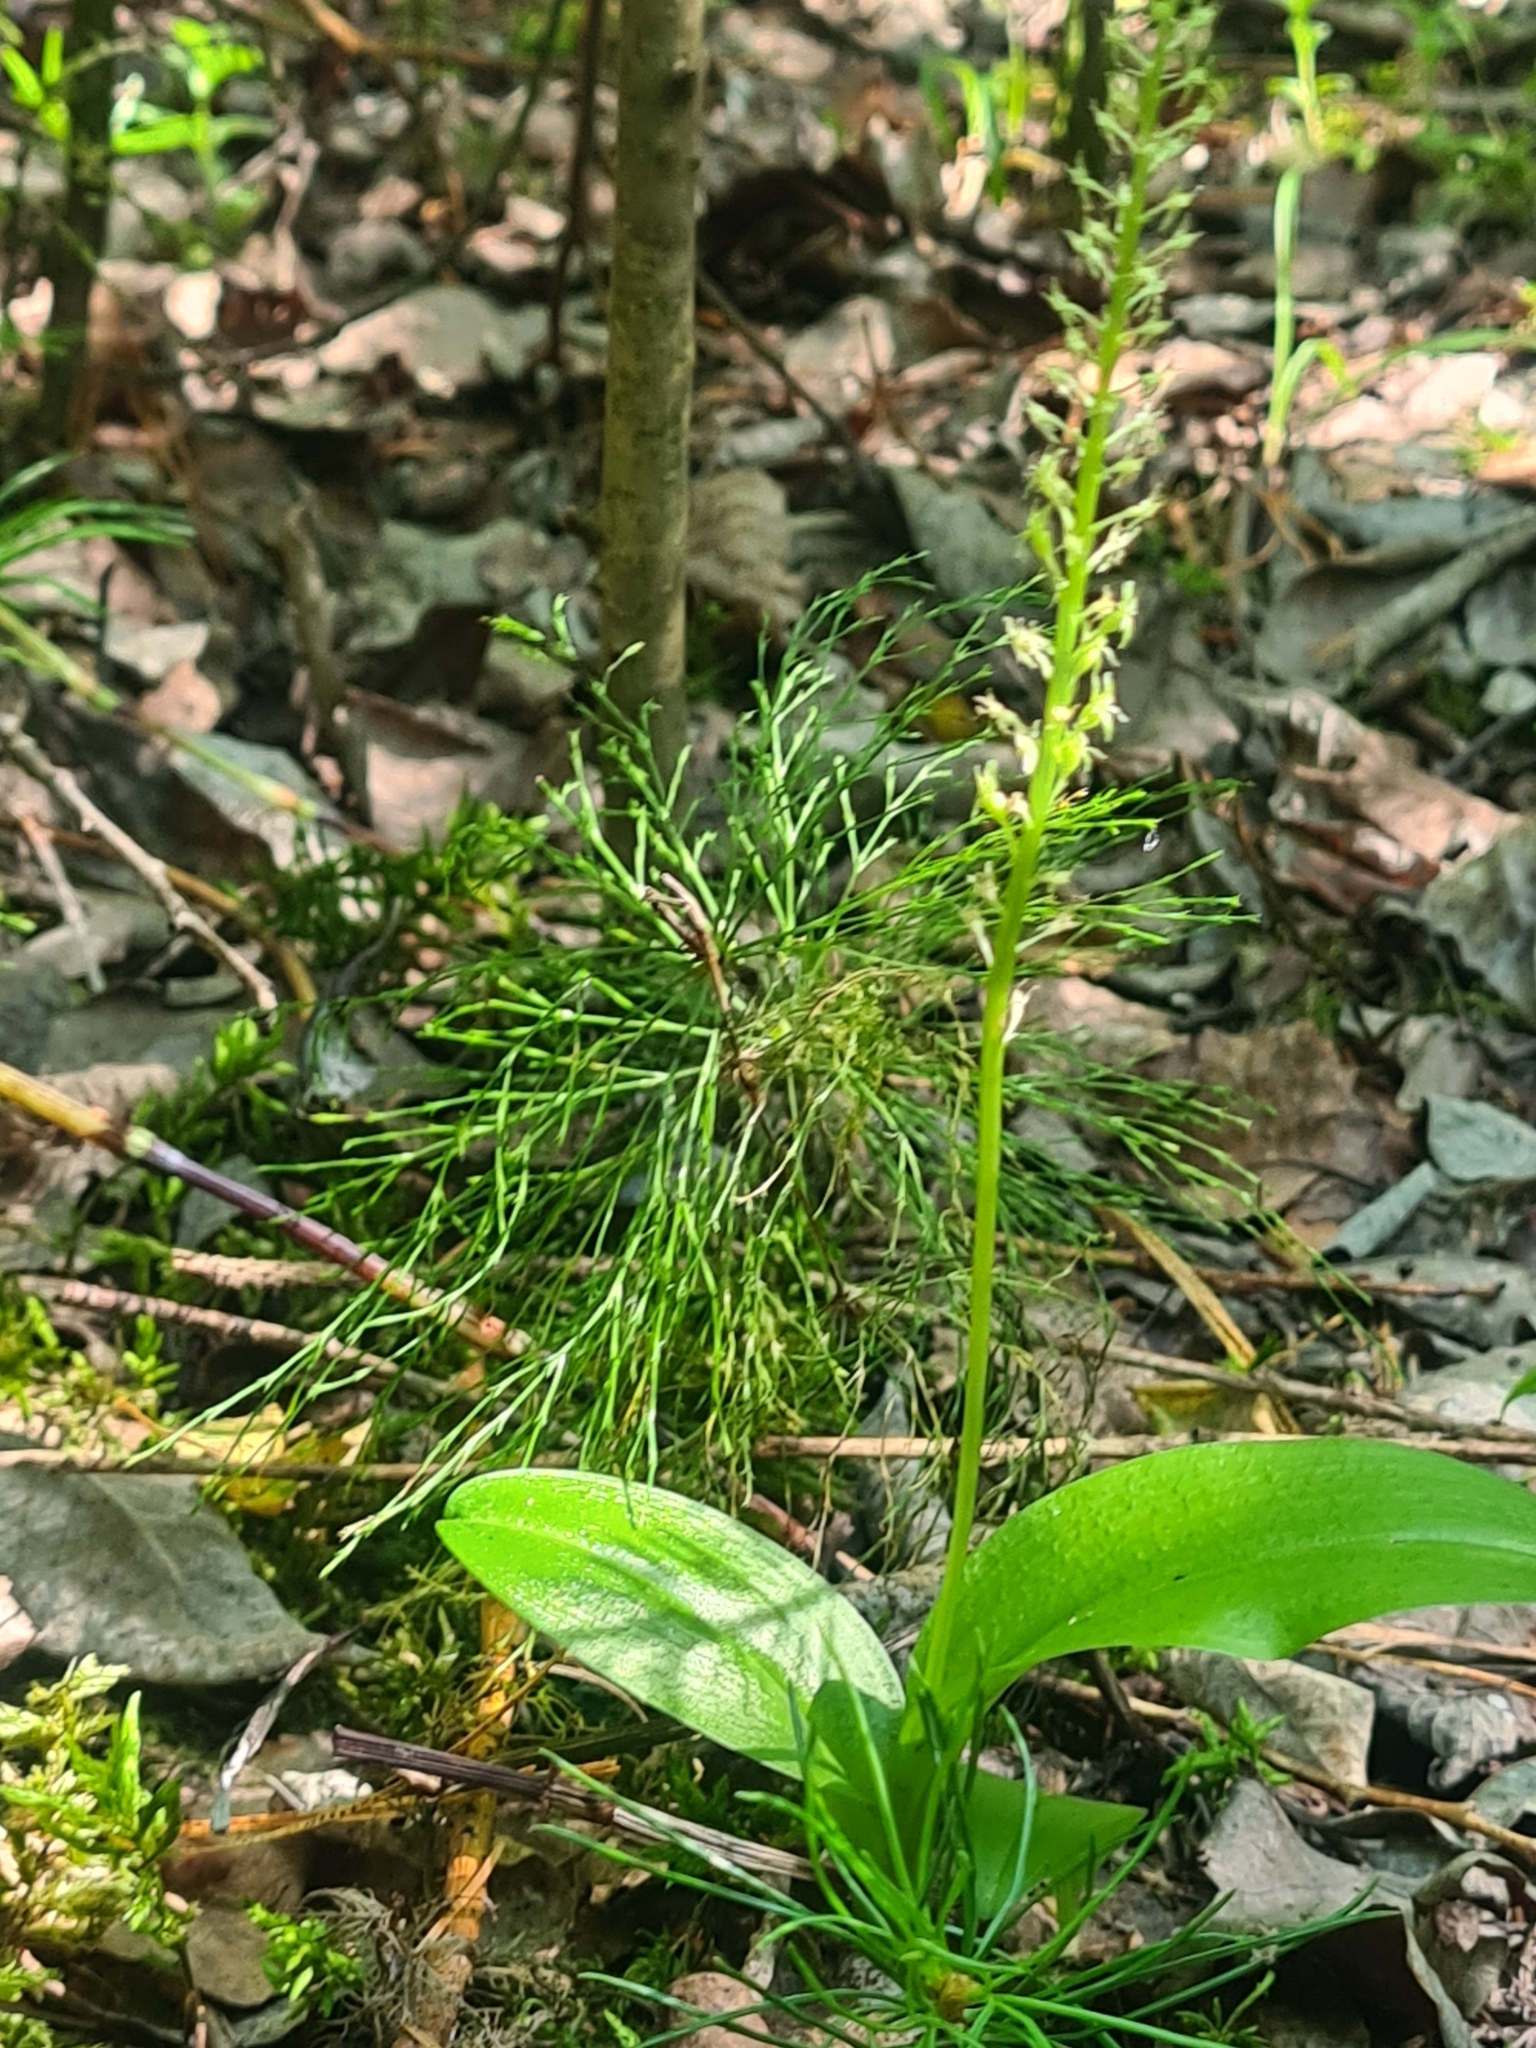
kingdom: Plantae
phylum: Tracheophyta
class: Liliopsida
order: Asparagales
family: Orchidaceae
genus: Malaxis
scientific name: Malaxis monophyllos
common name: White adder's-mouth
